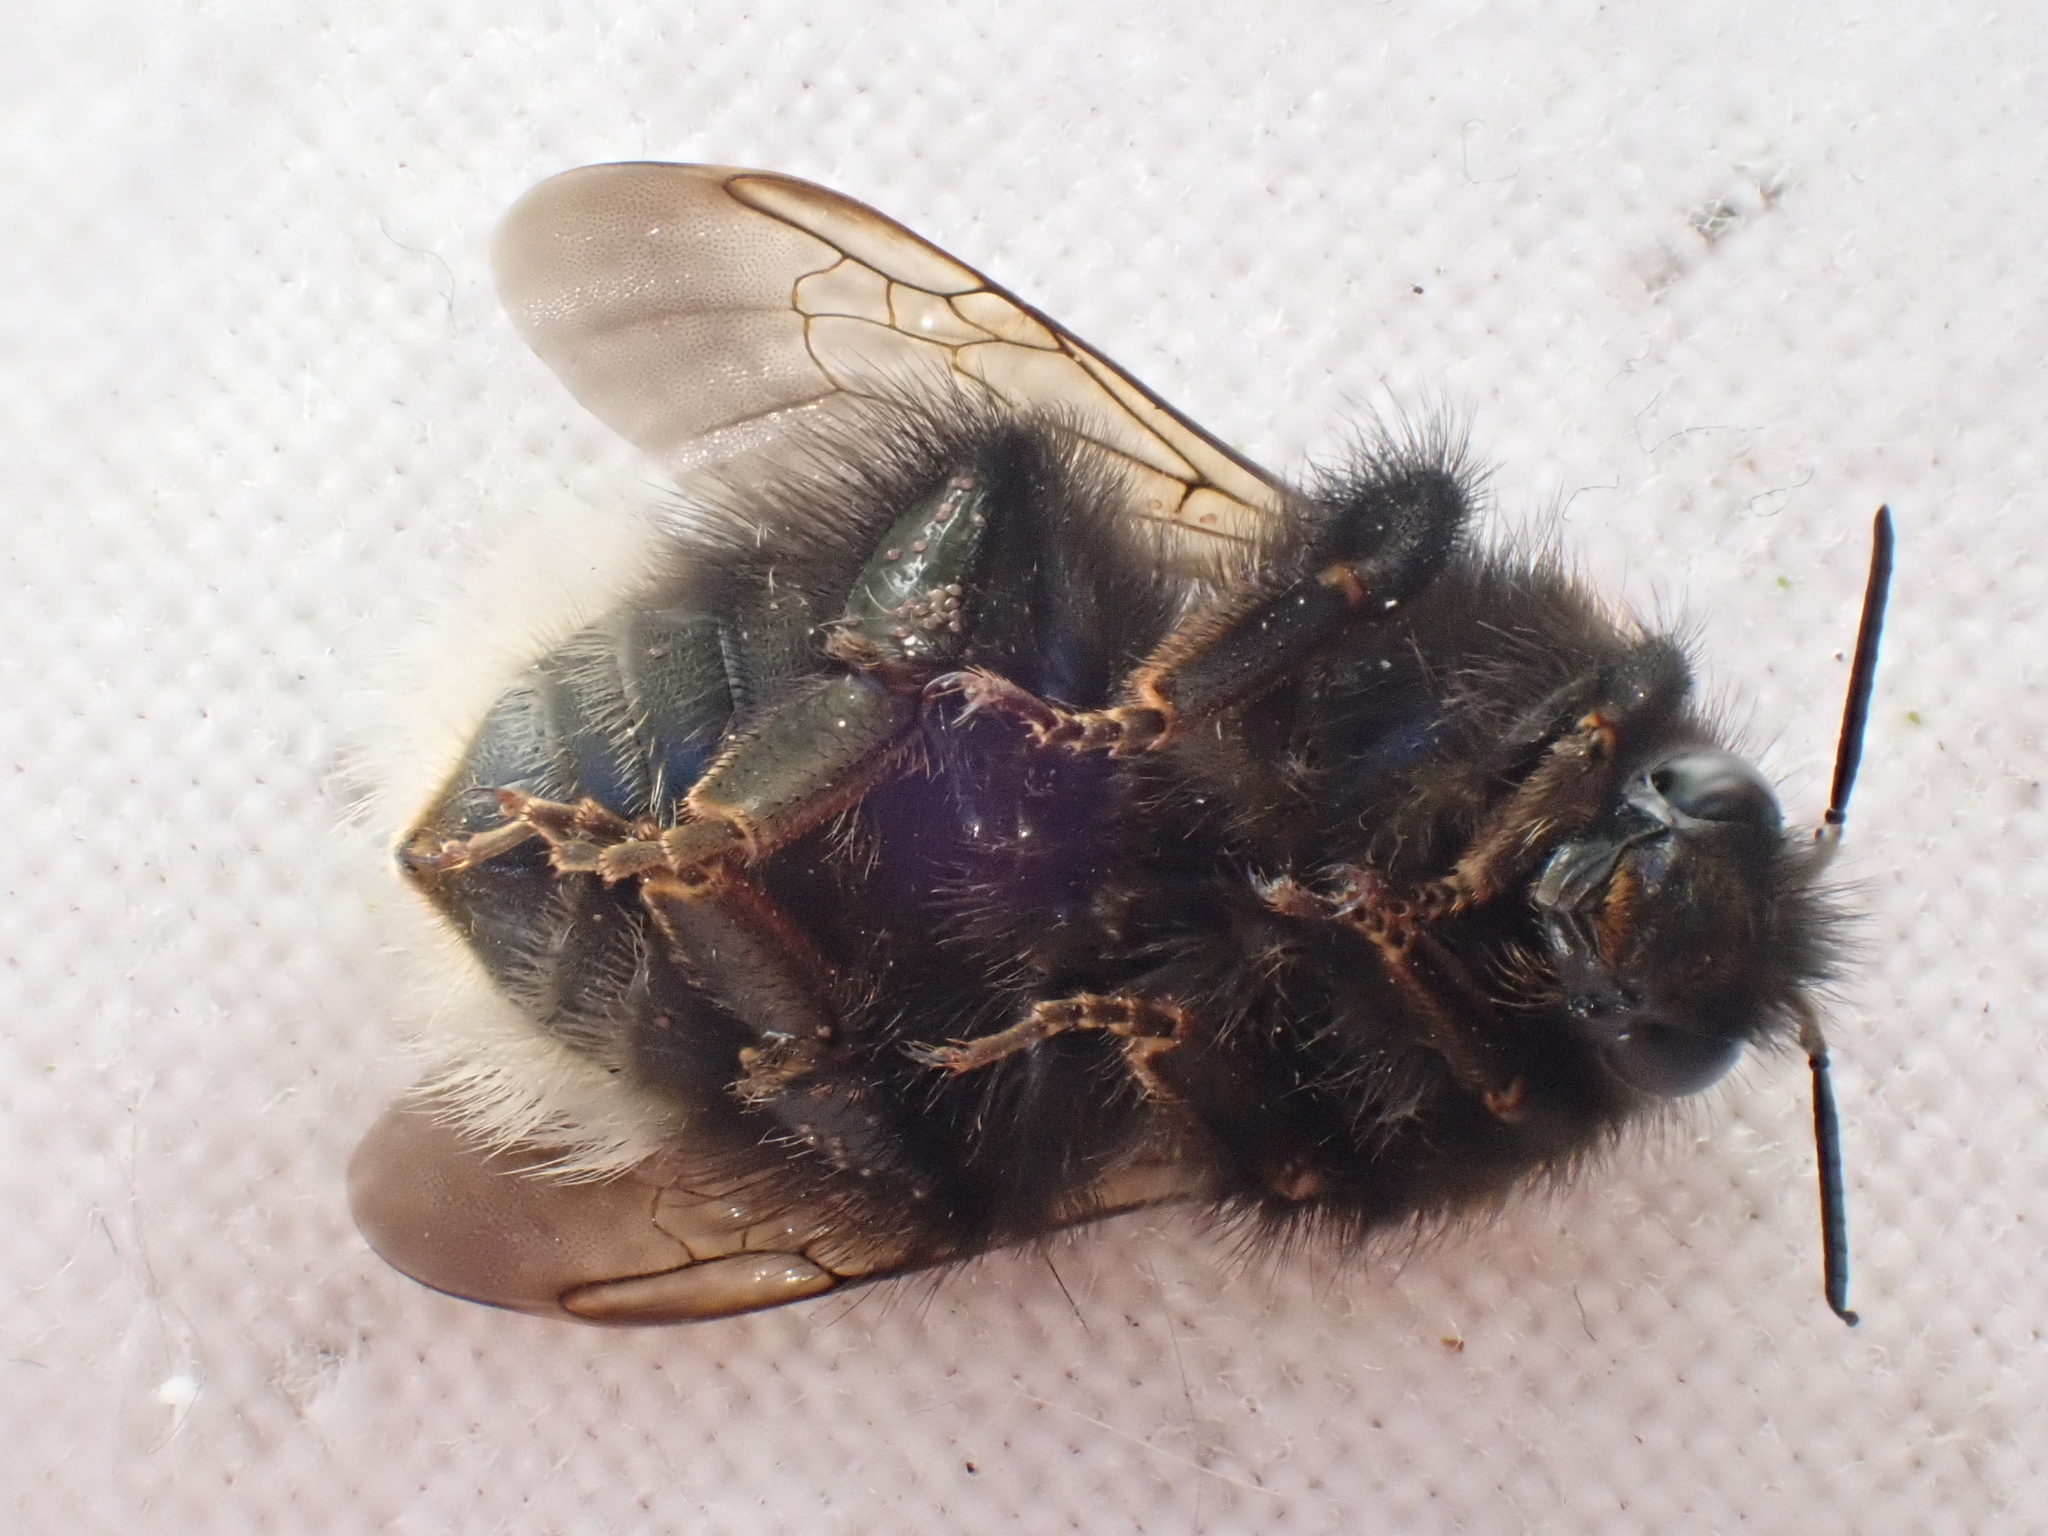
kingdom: Animalia
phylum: Arthropoda
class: Insecta
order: Hymenoptera
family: Apidae
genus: Bombus
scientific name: Bombus hypnorum
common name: New garden bumblebee
